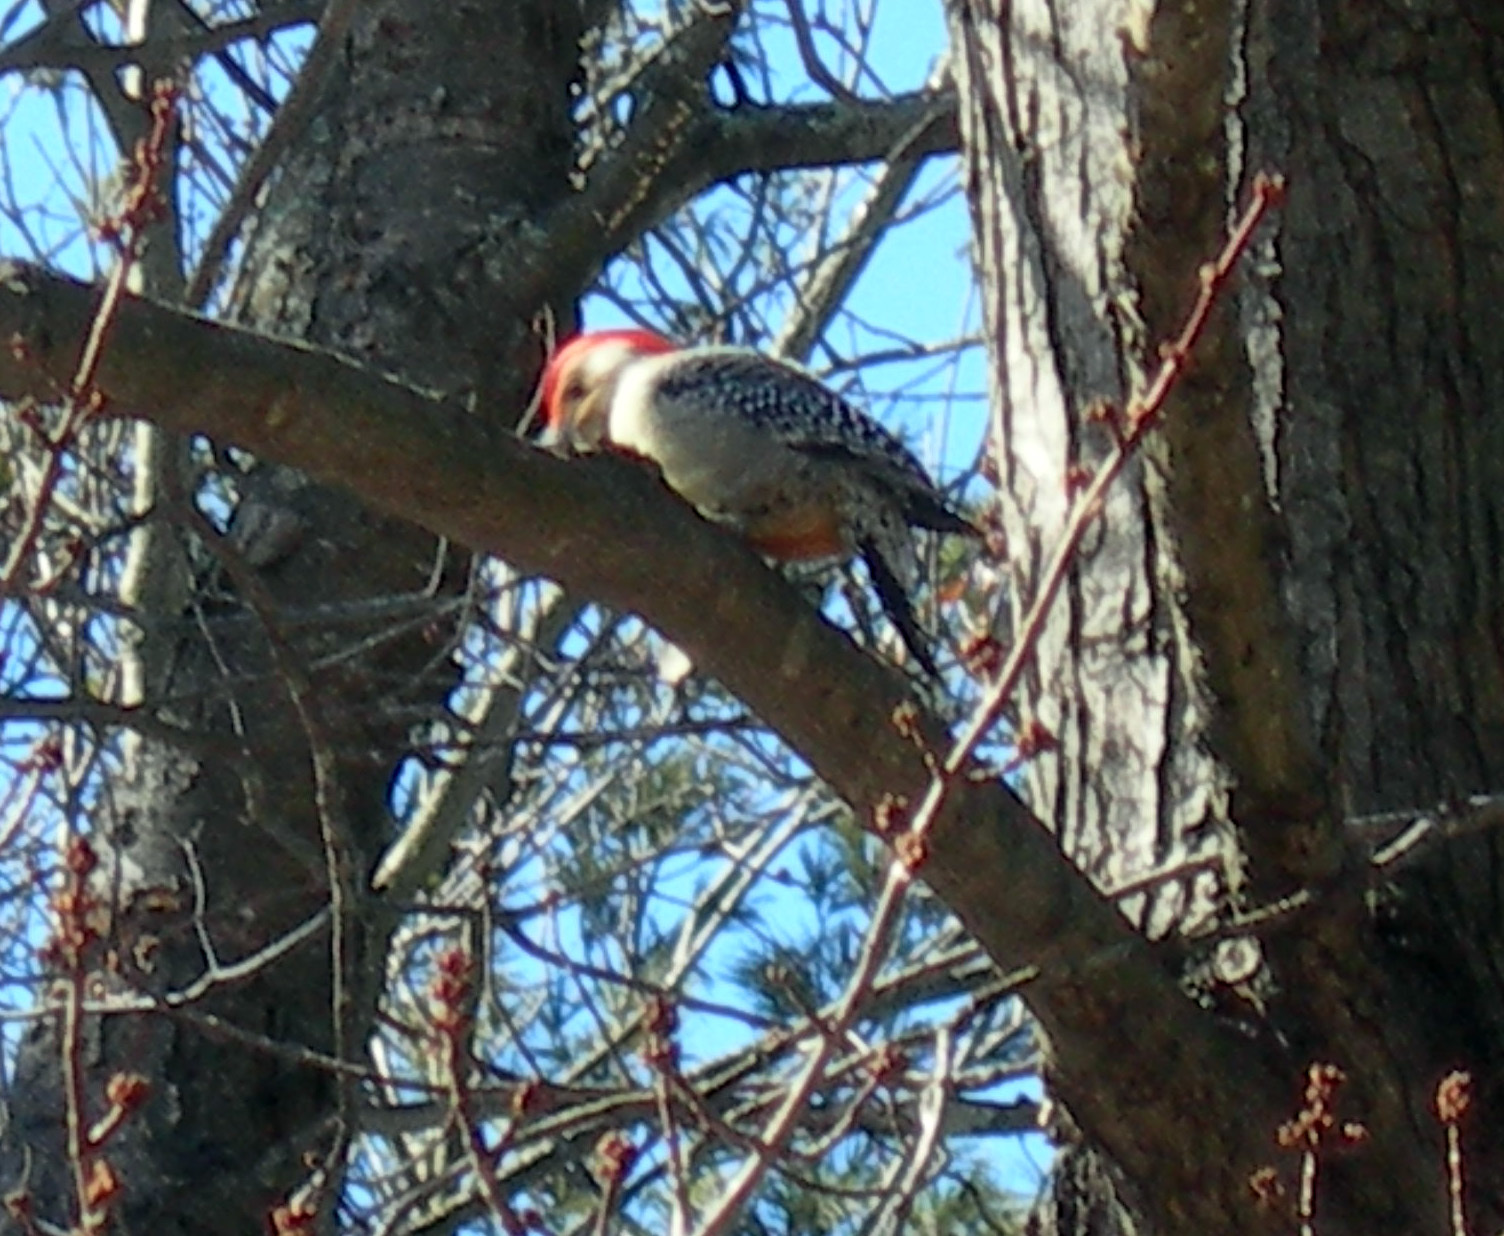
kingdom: Animalia
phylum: Chordata
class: Aves
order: Piciformes
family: Picidae
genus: Melanerpes
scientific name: Melanerpes carolinus
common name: Red-bellied woodpecker
